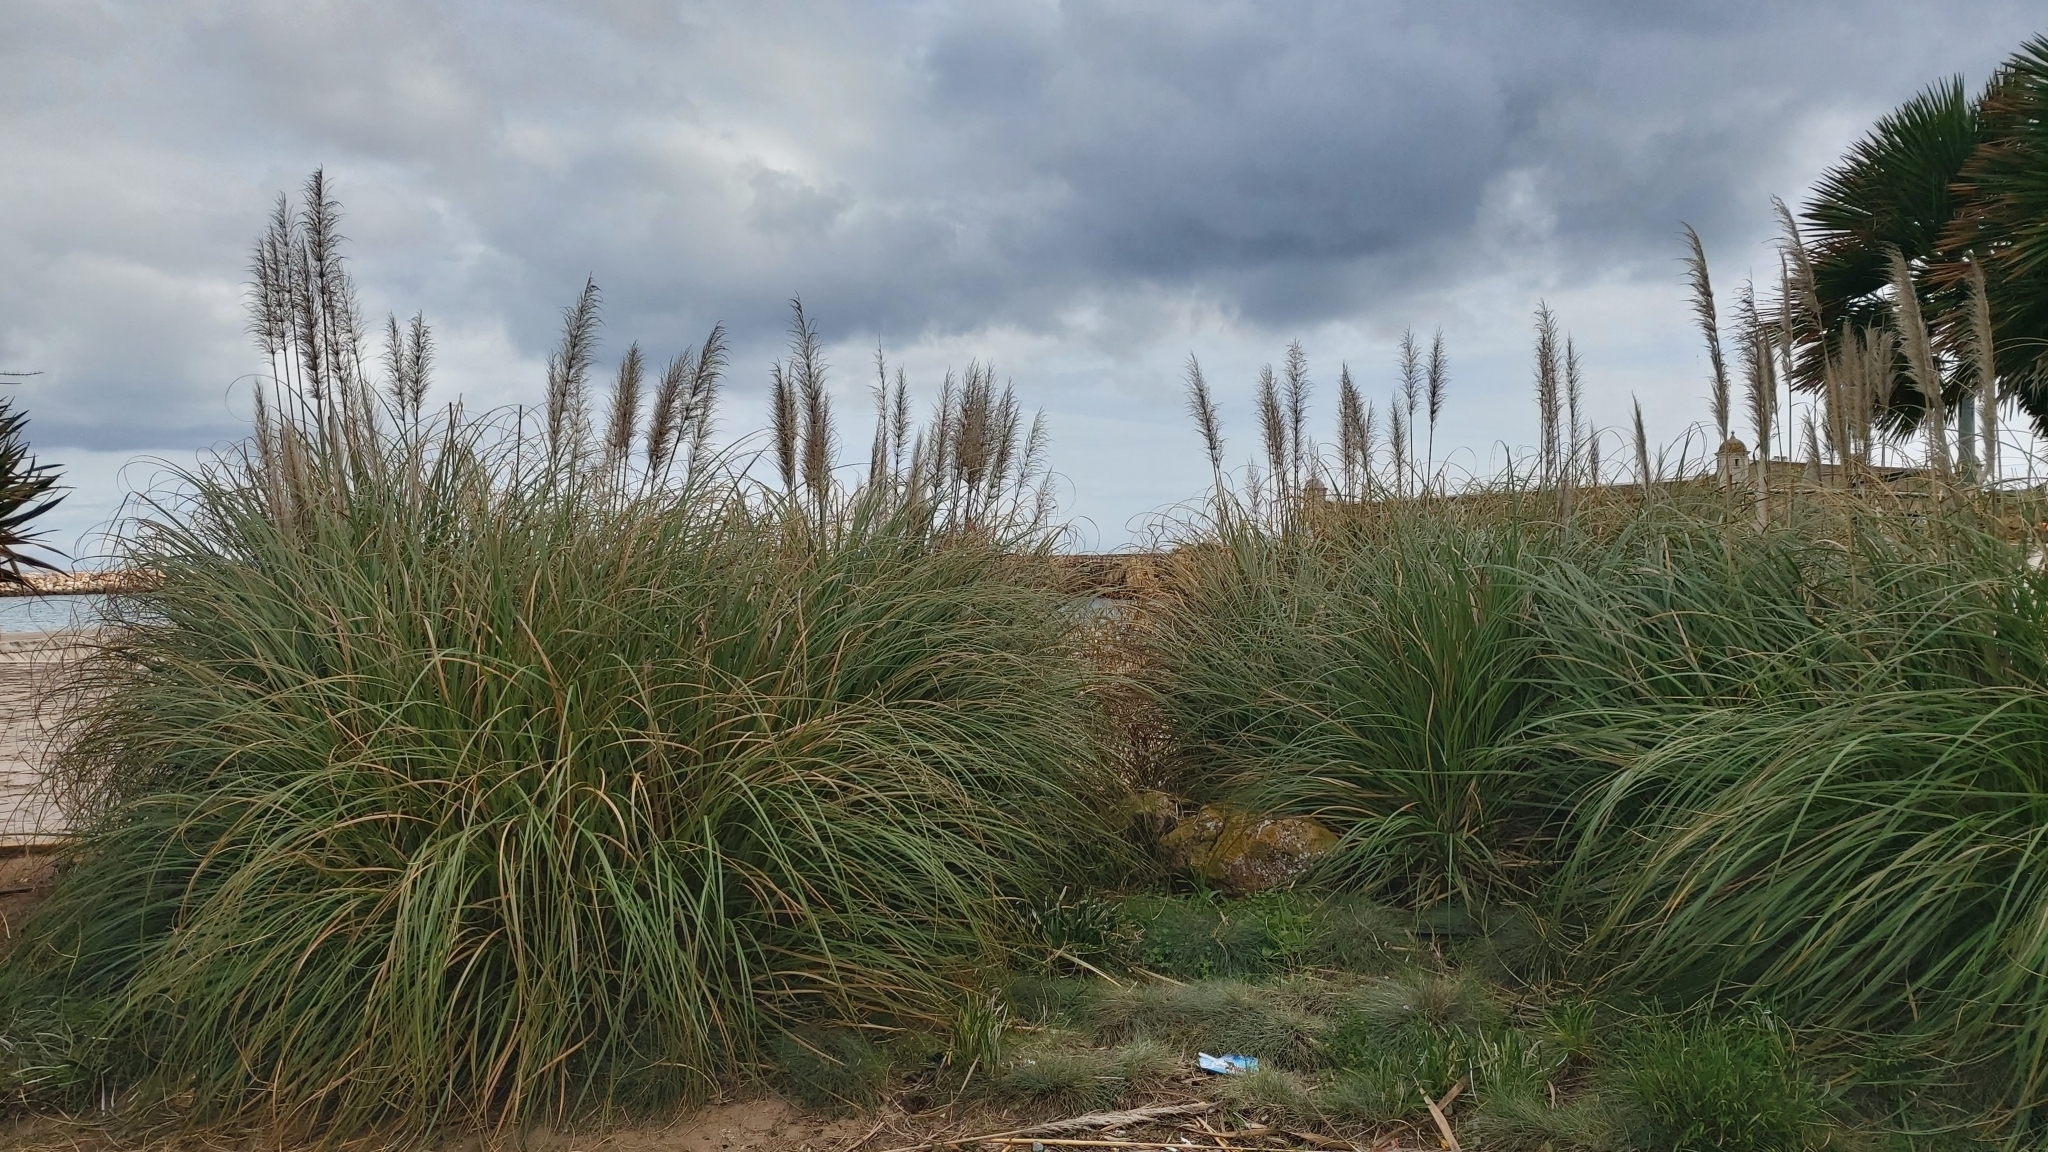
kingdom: Plantae
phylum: Tracheophyta
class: Liliopsida
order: Poales
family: Poaceae
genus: Cortaderia
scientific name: Cortaderia selloana
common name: Uruguayan pampas grass
